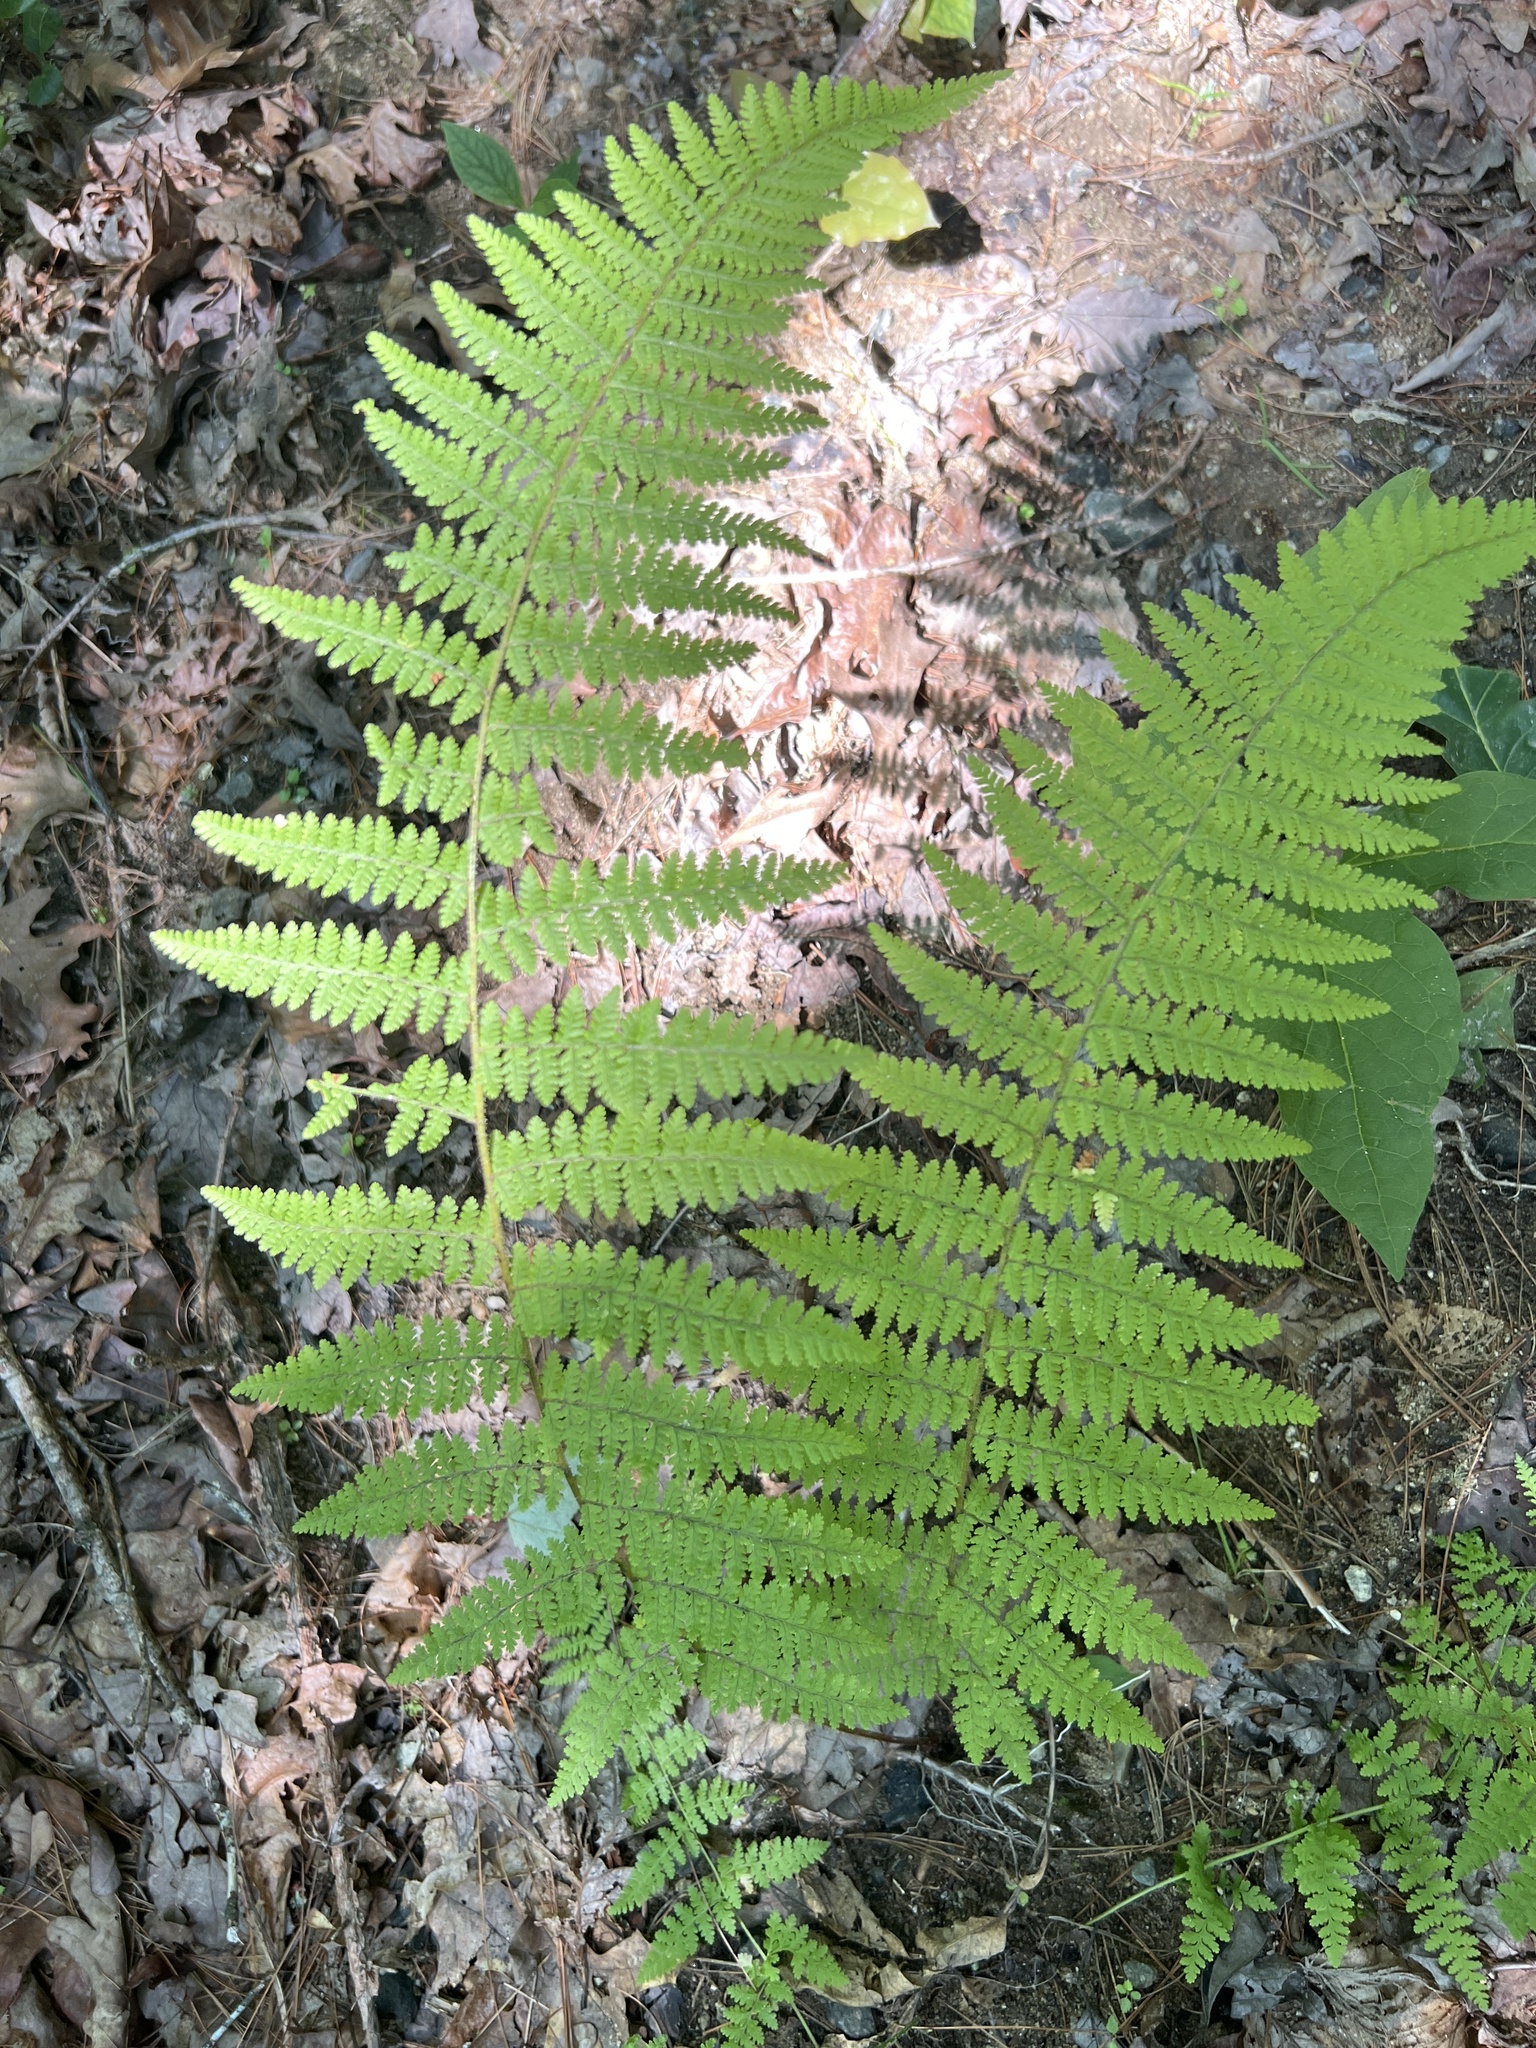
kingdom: Plantae
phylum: Tracheophyta
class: Polypodiopsida
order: Polypodiales
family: Dennstaedtiaceae
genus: Sitobolium
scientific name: Sitobolium punctilobum
